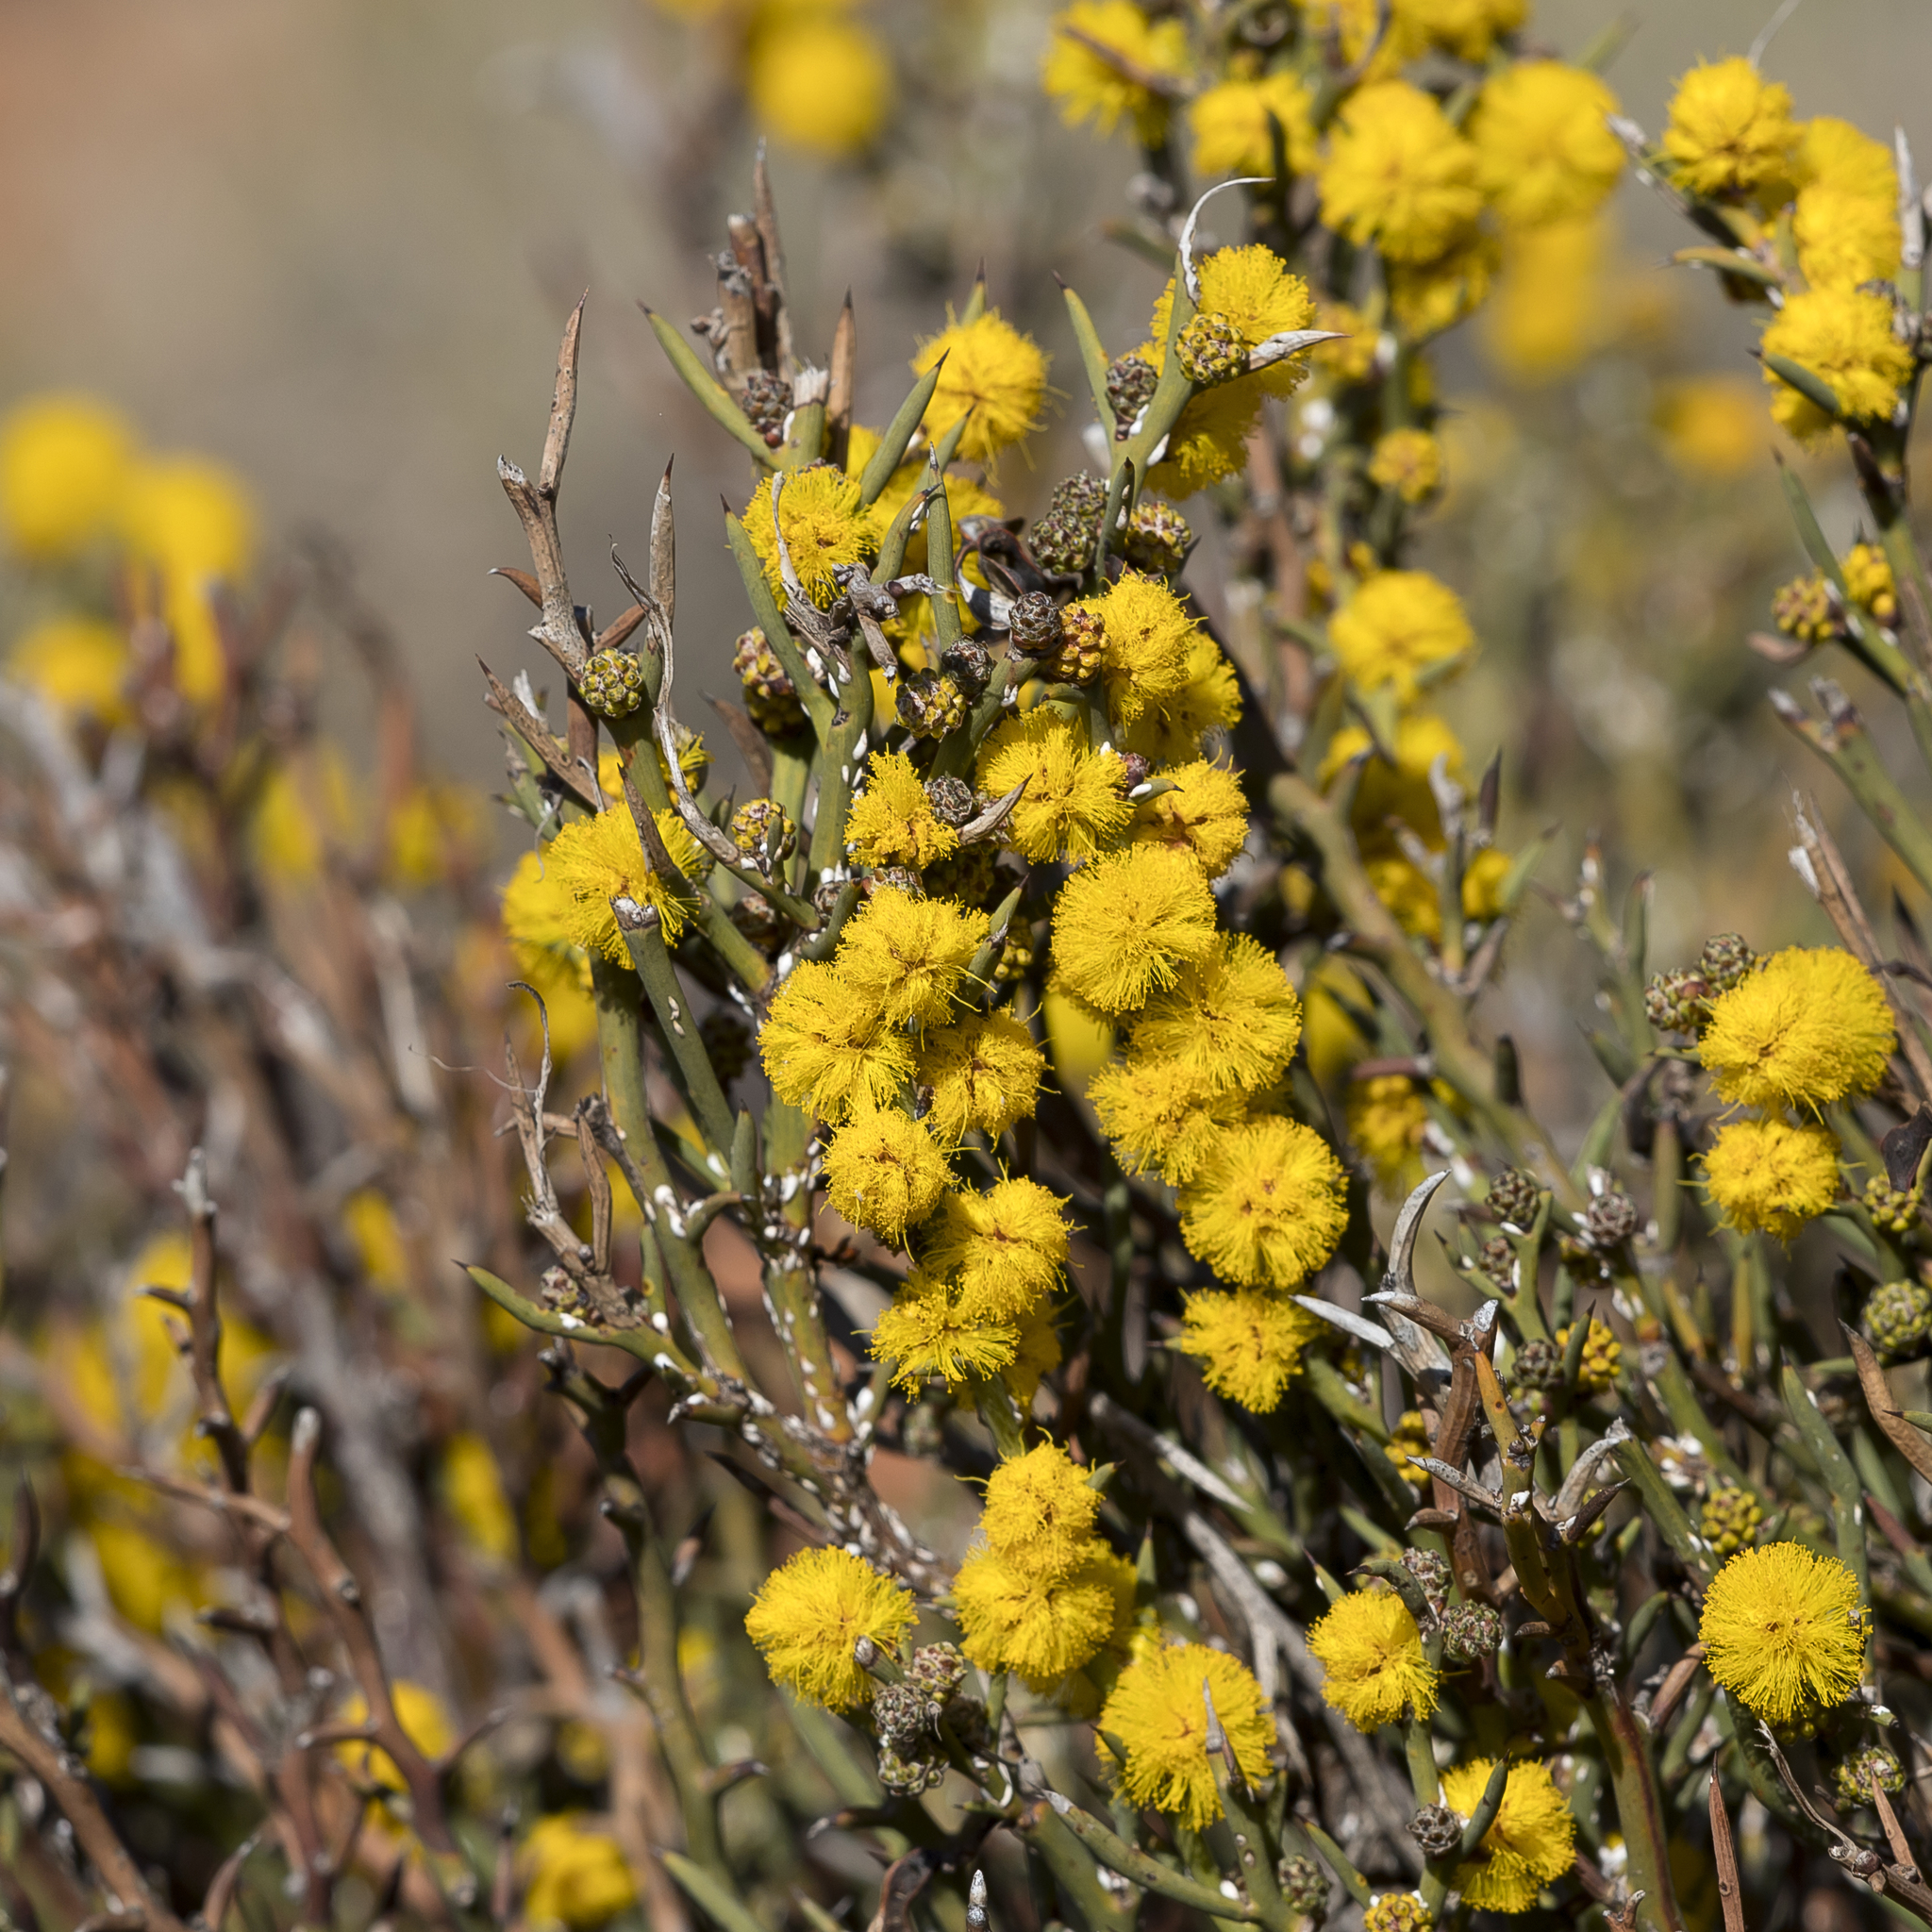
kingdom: Plantae
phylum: Tracheophyta
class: Magnoliopsida
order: Fabales
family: Fabaceae
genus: Acacia
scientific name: Acacia continua
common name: Thorn wattle
